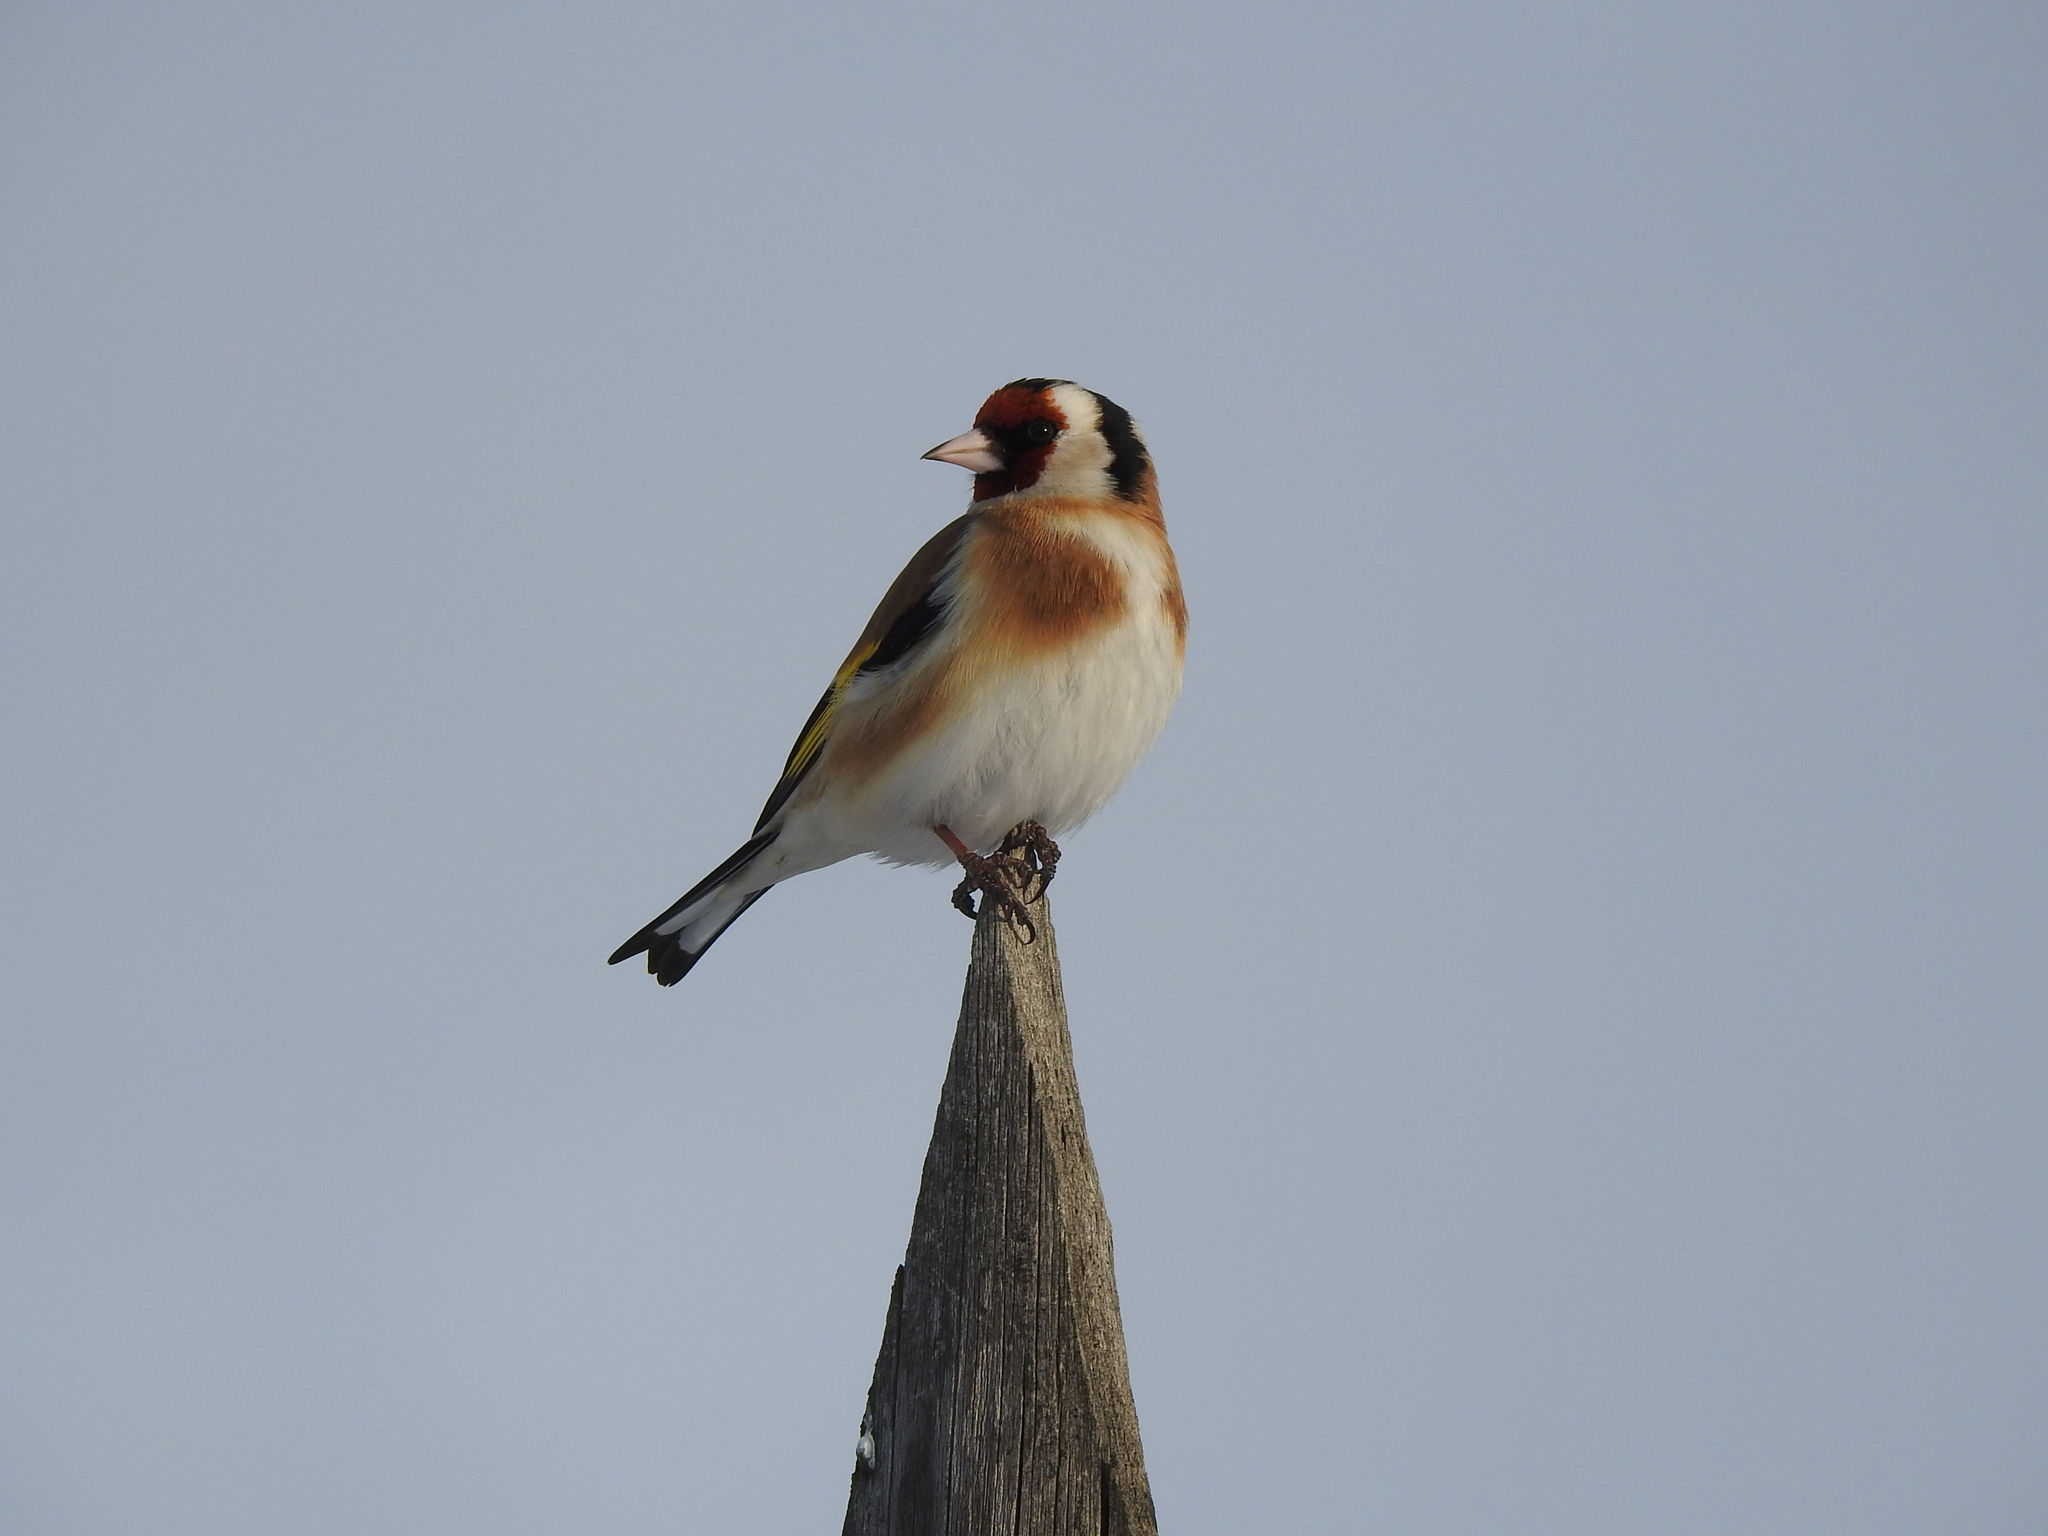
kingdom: Animalia
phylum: Chordata
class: Aves
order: Passeriformes
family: Fringillidae
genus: Carduelis
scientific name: Carduelis carduelis
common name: European goldfinch
